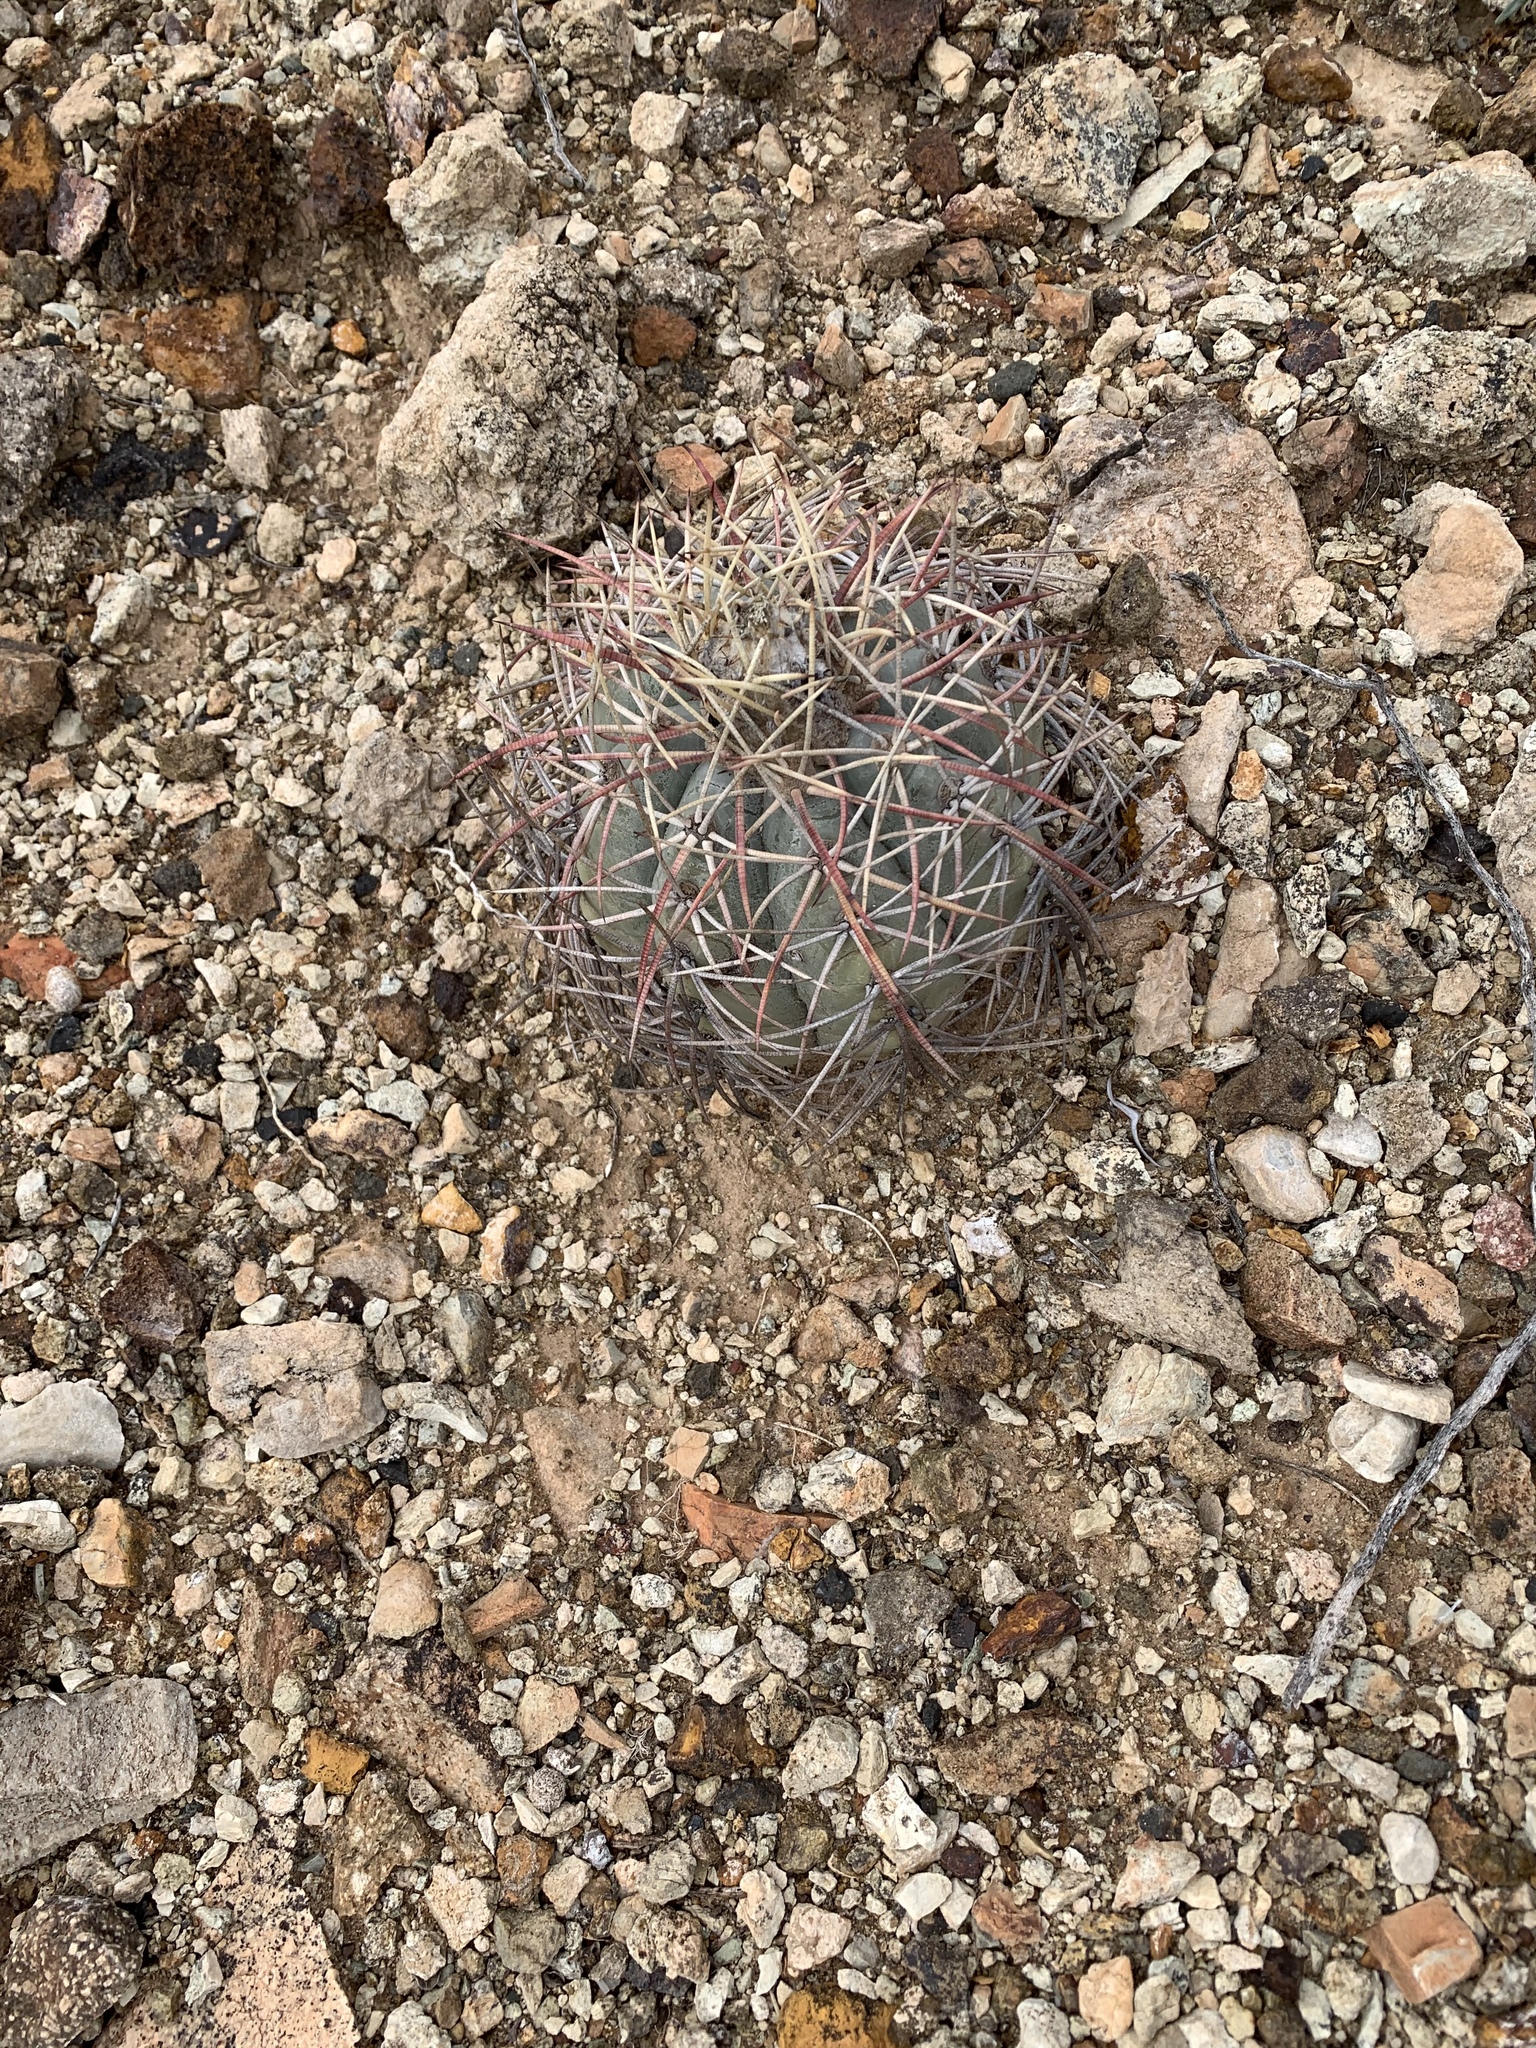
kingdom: Plantae
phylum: Tracheophyta
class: Magnoliopsida
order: Caryophyllales
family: Cactaceae
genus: Echinocactus
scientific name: Echinocactus horizonthalonius
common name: Devilshead
